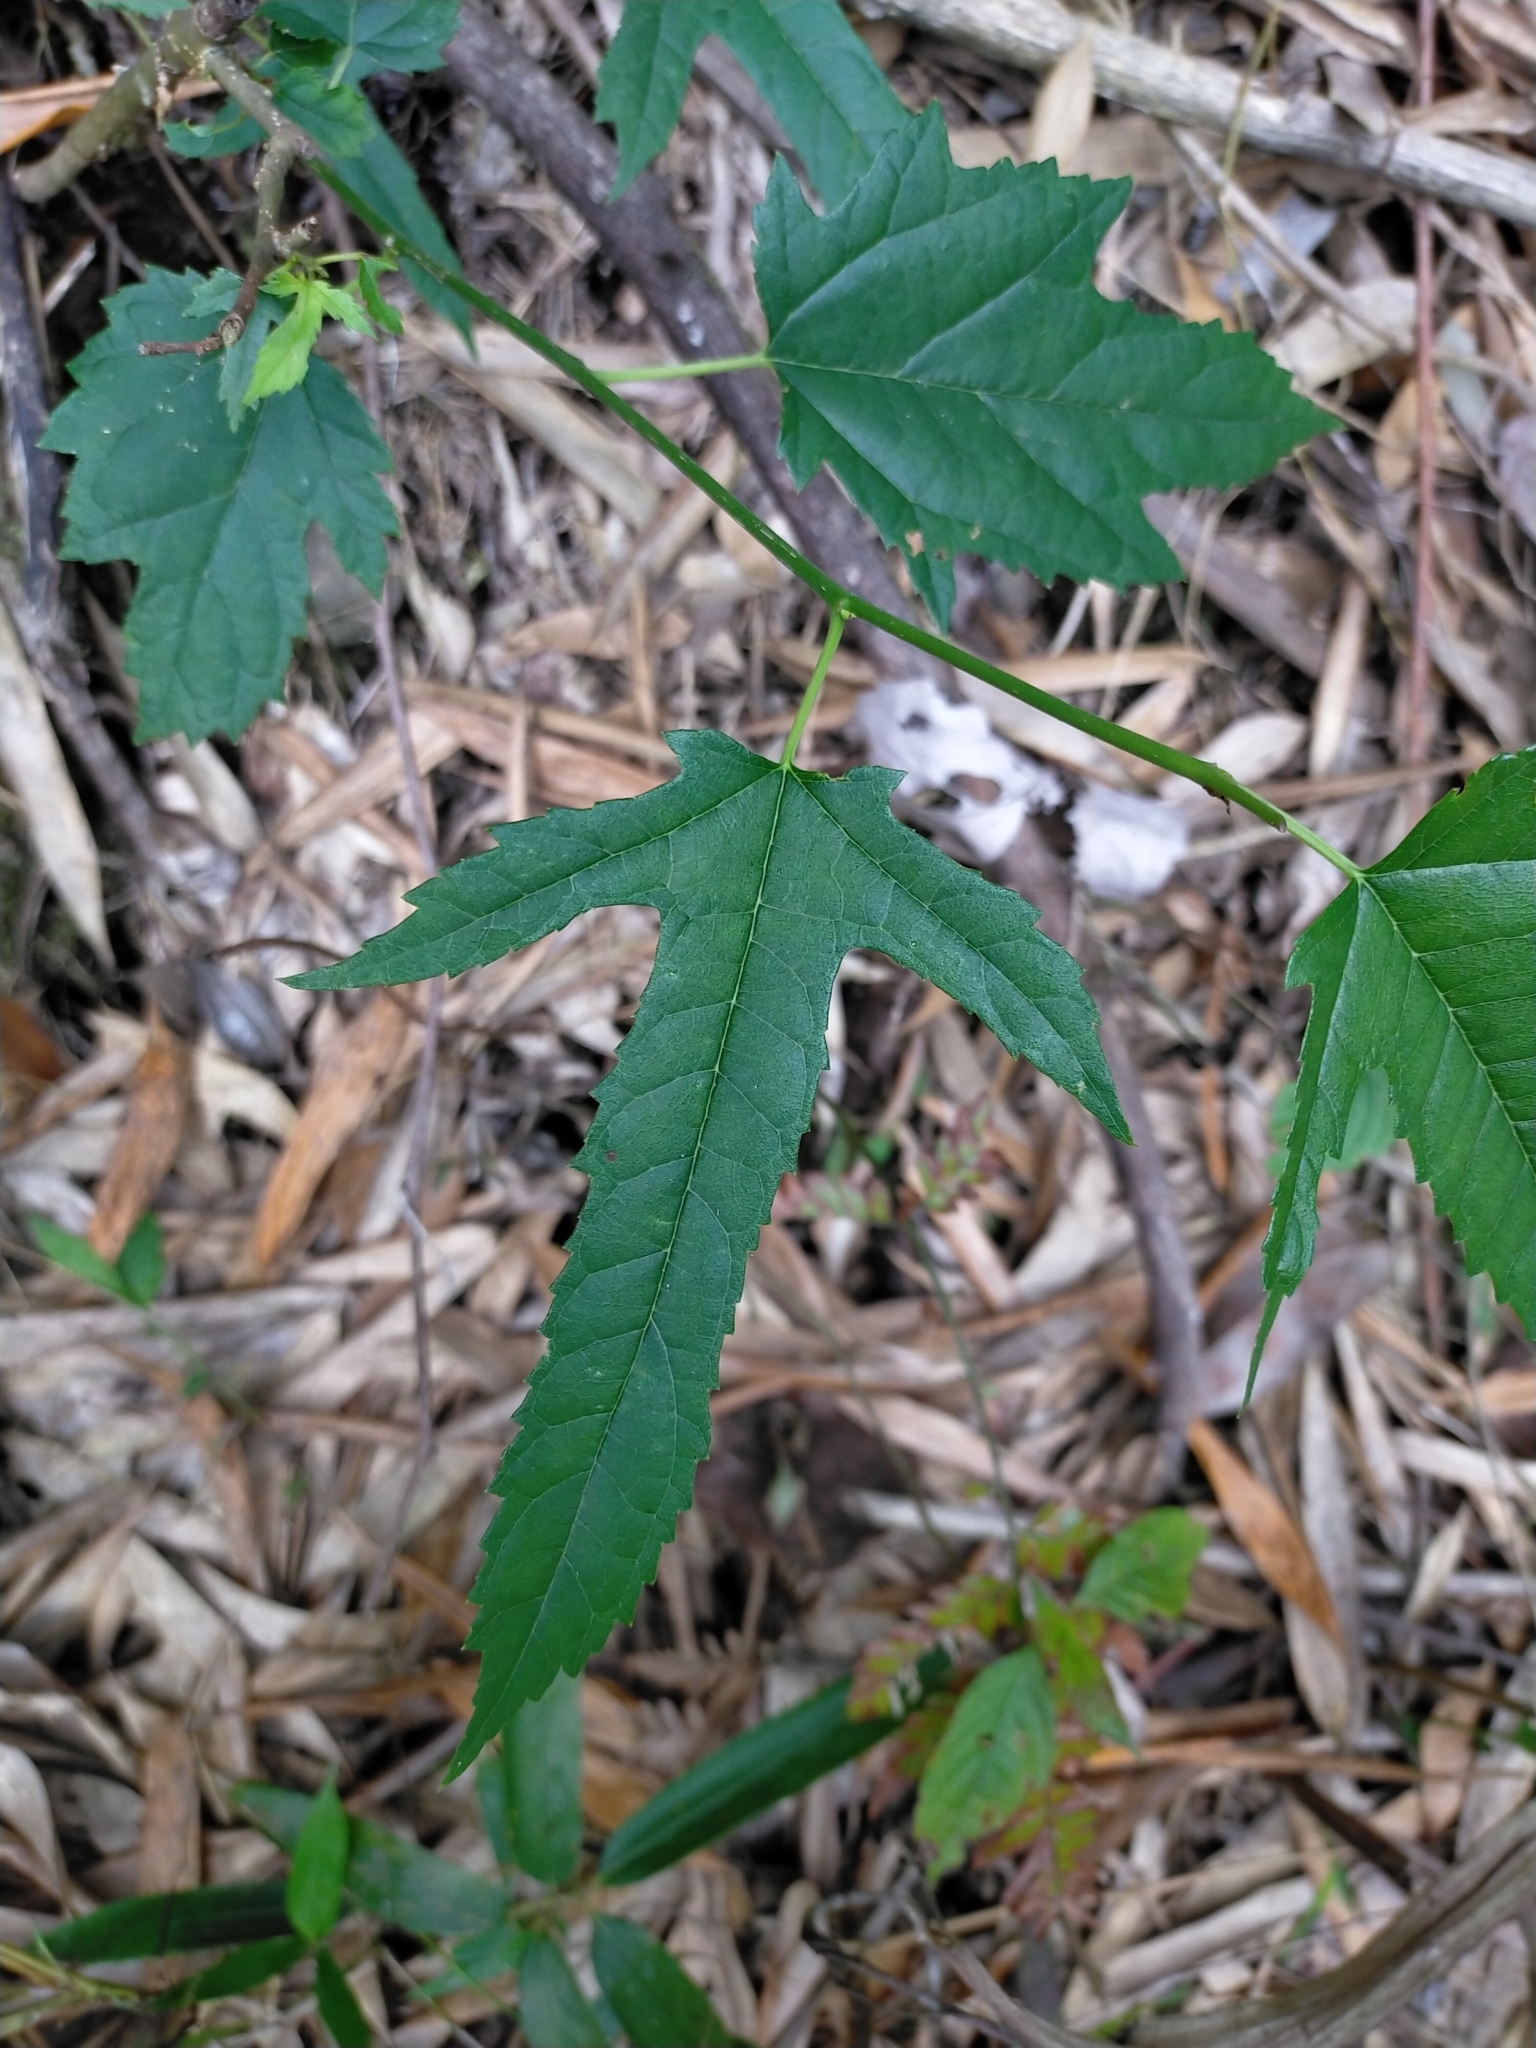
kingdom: Plantae
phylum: Tracheophyta
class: Magnoliopsida
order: Rosales
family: Moraceae
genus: Morus
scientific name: Morus indica
